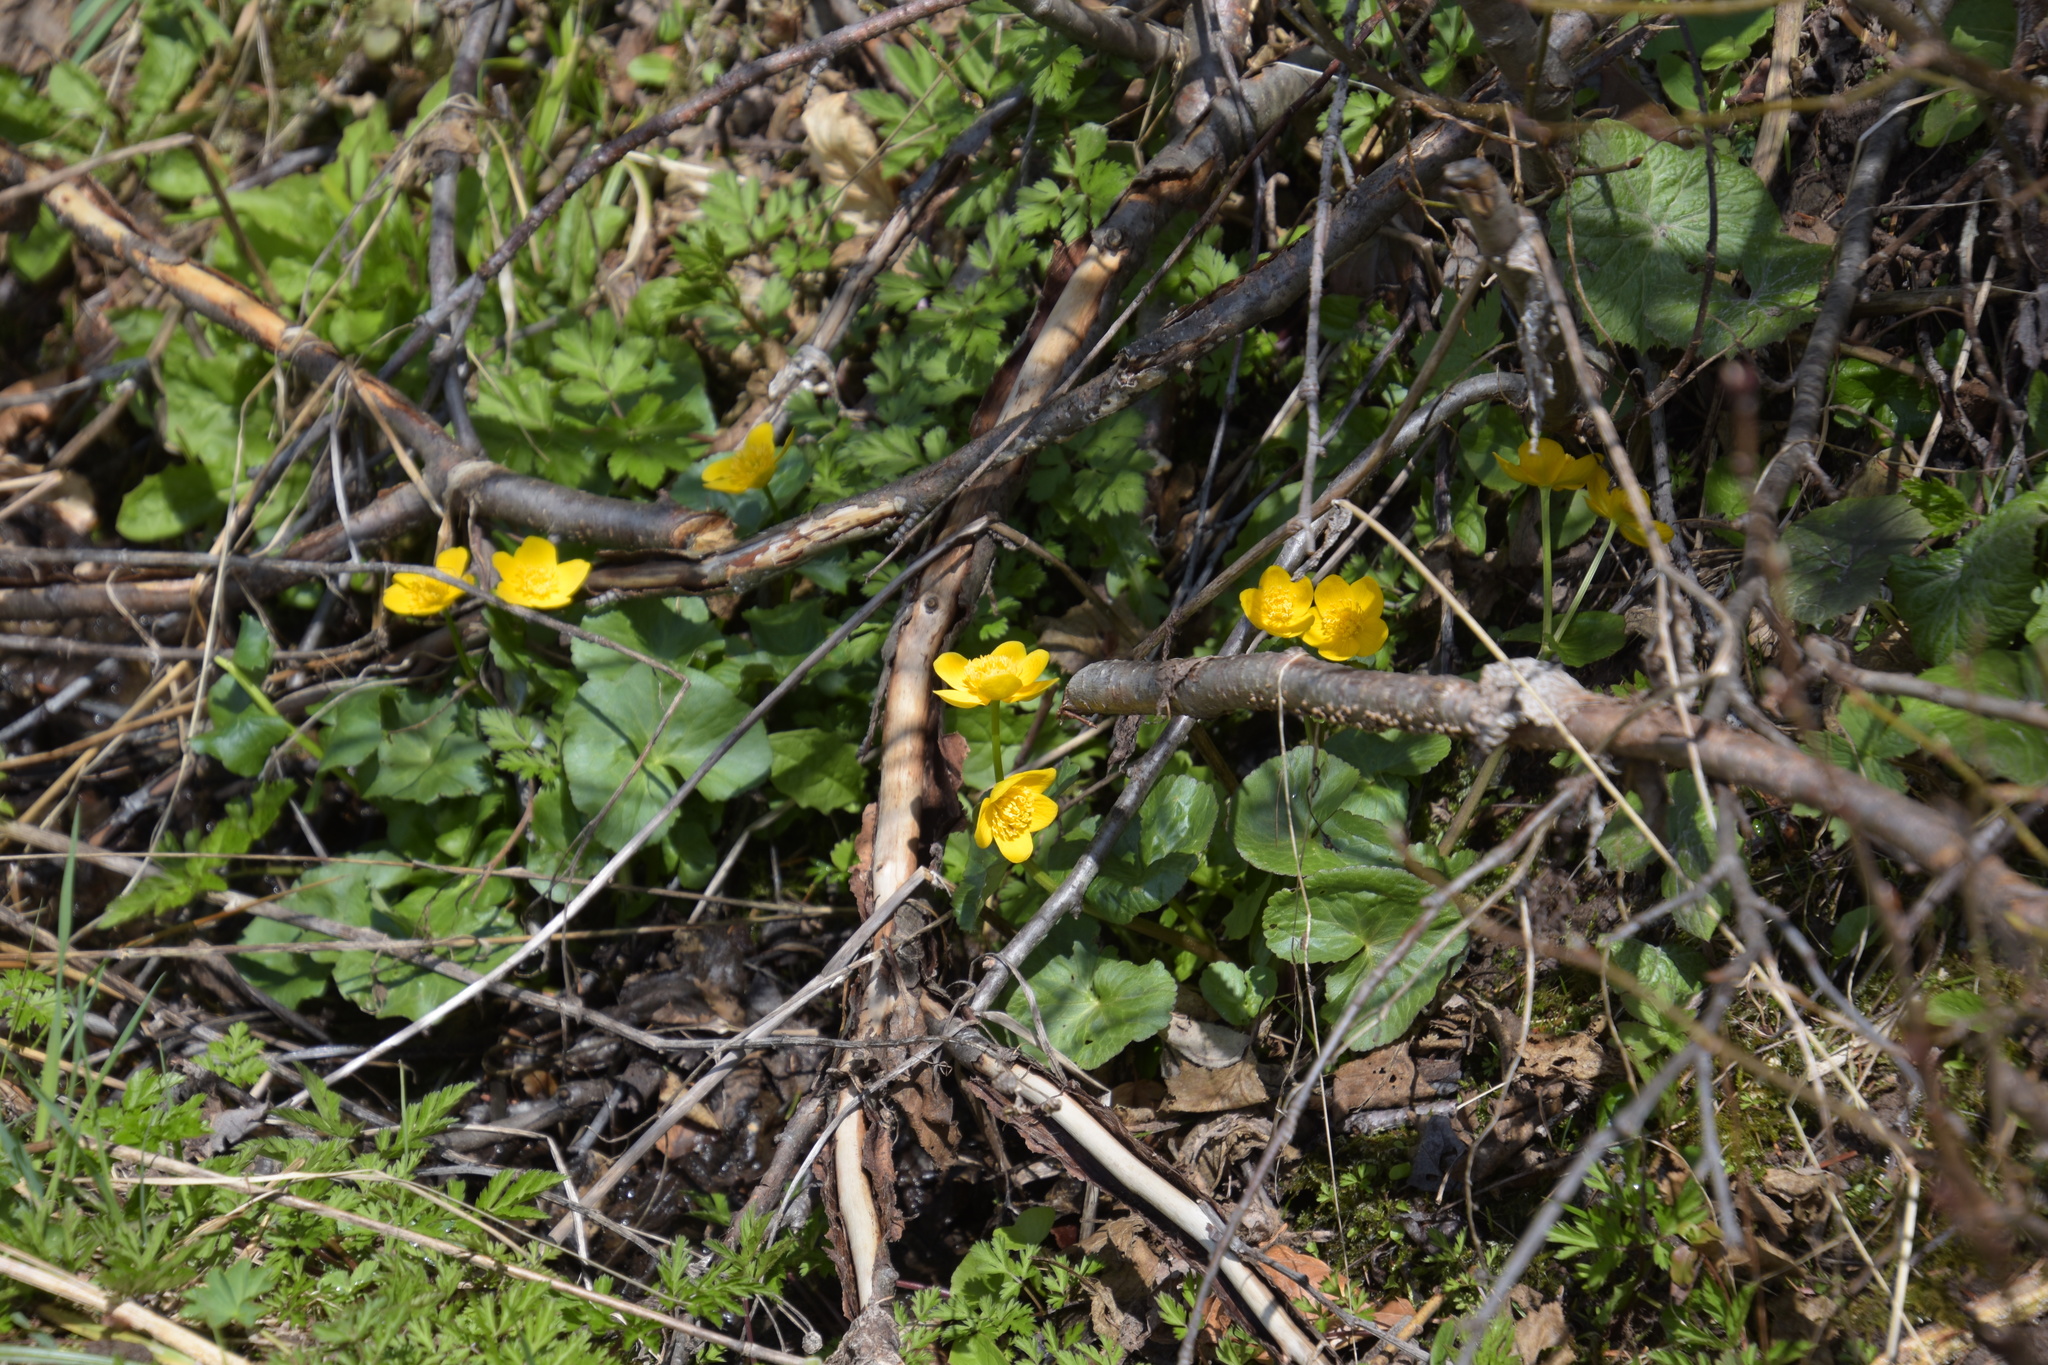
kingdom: Plantae
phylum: Tracheophyta
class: Magnoliopsida
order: Ranunculales
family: Ranunculaceae
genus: Caltha
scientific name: Caltha palustris
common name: Marsh marigold
